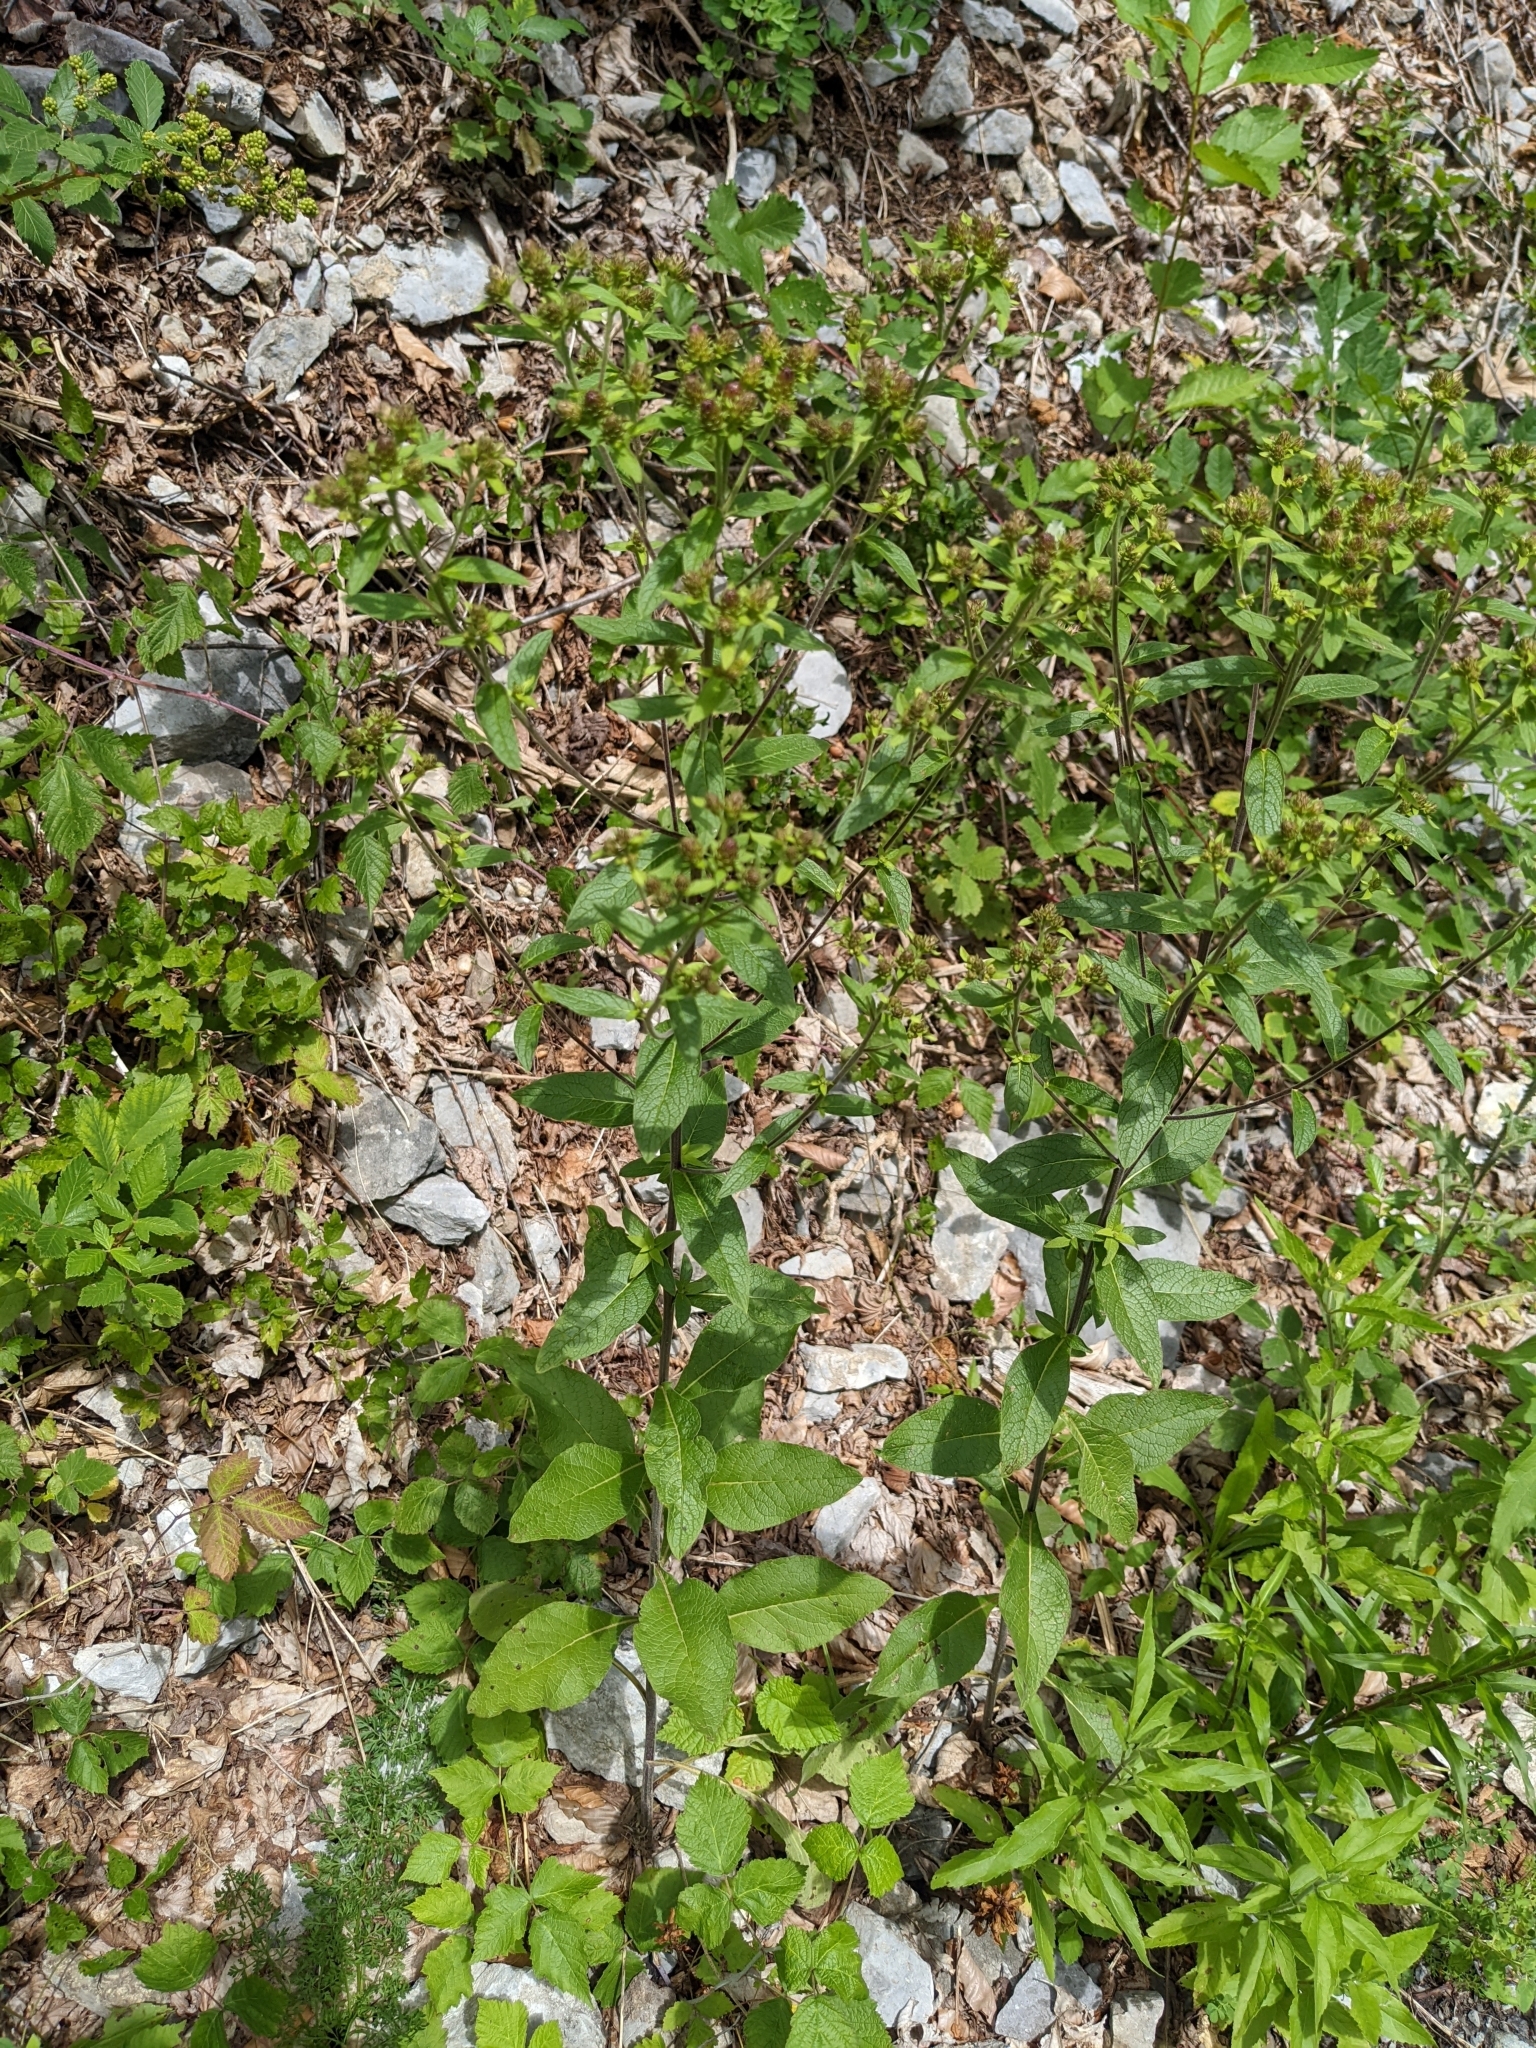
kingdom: Plantae
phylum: Tracheophyta
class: Magnoliopsida
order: Asterales
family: Asteraceae
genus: Pentanema
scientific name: Pentanema squarrosum
